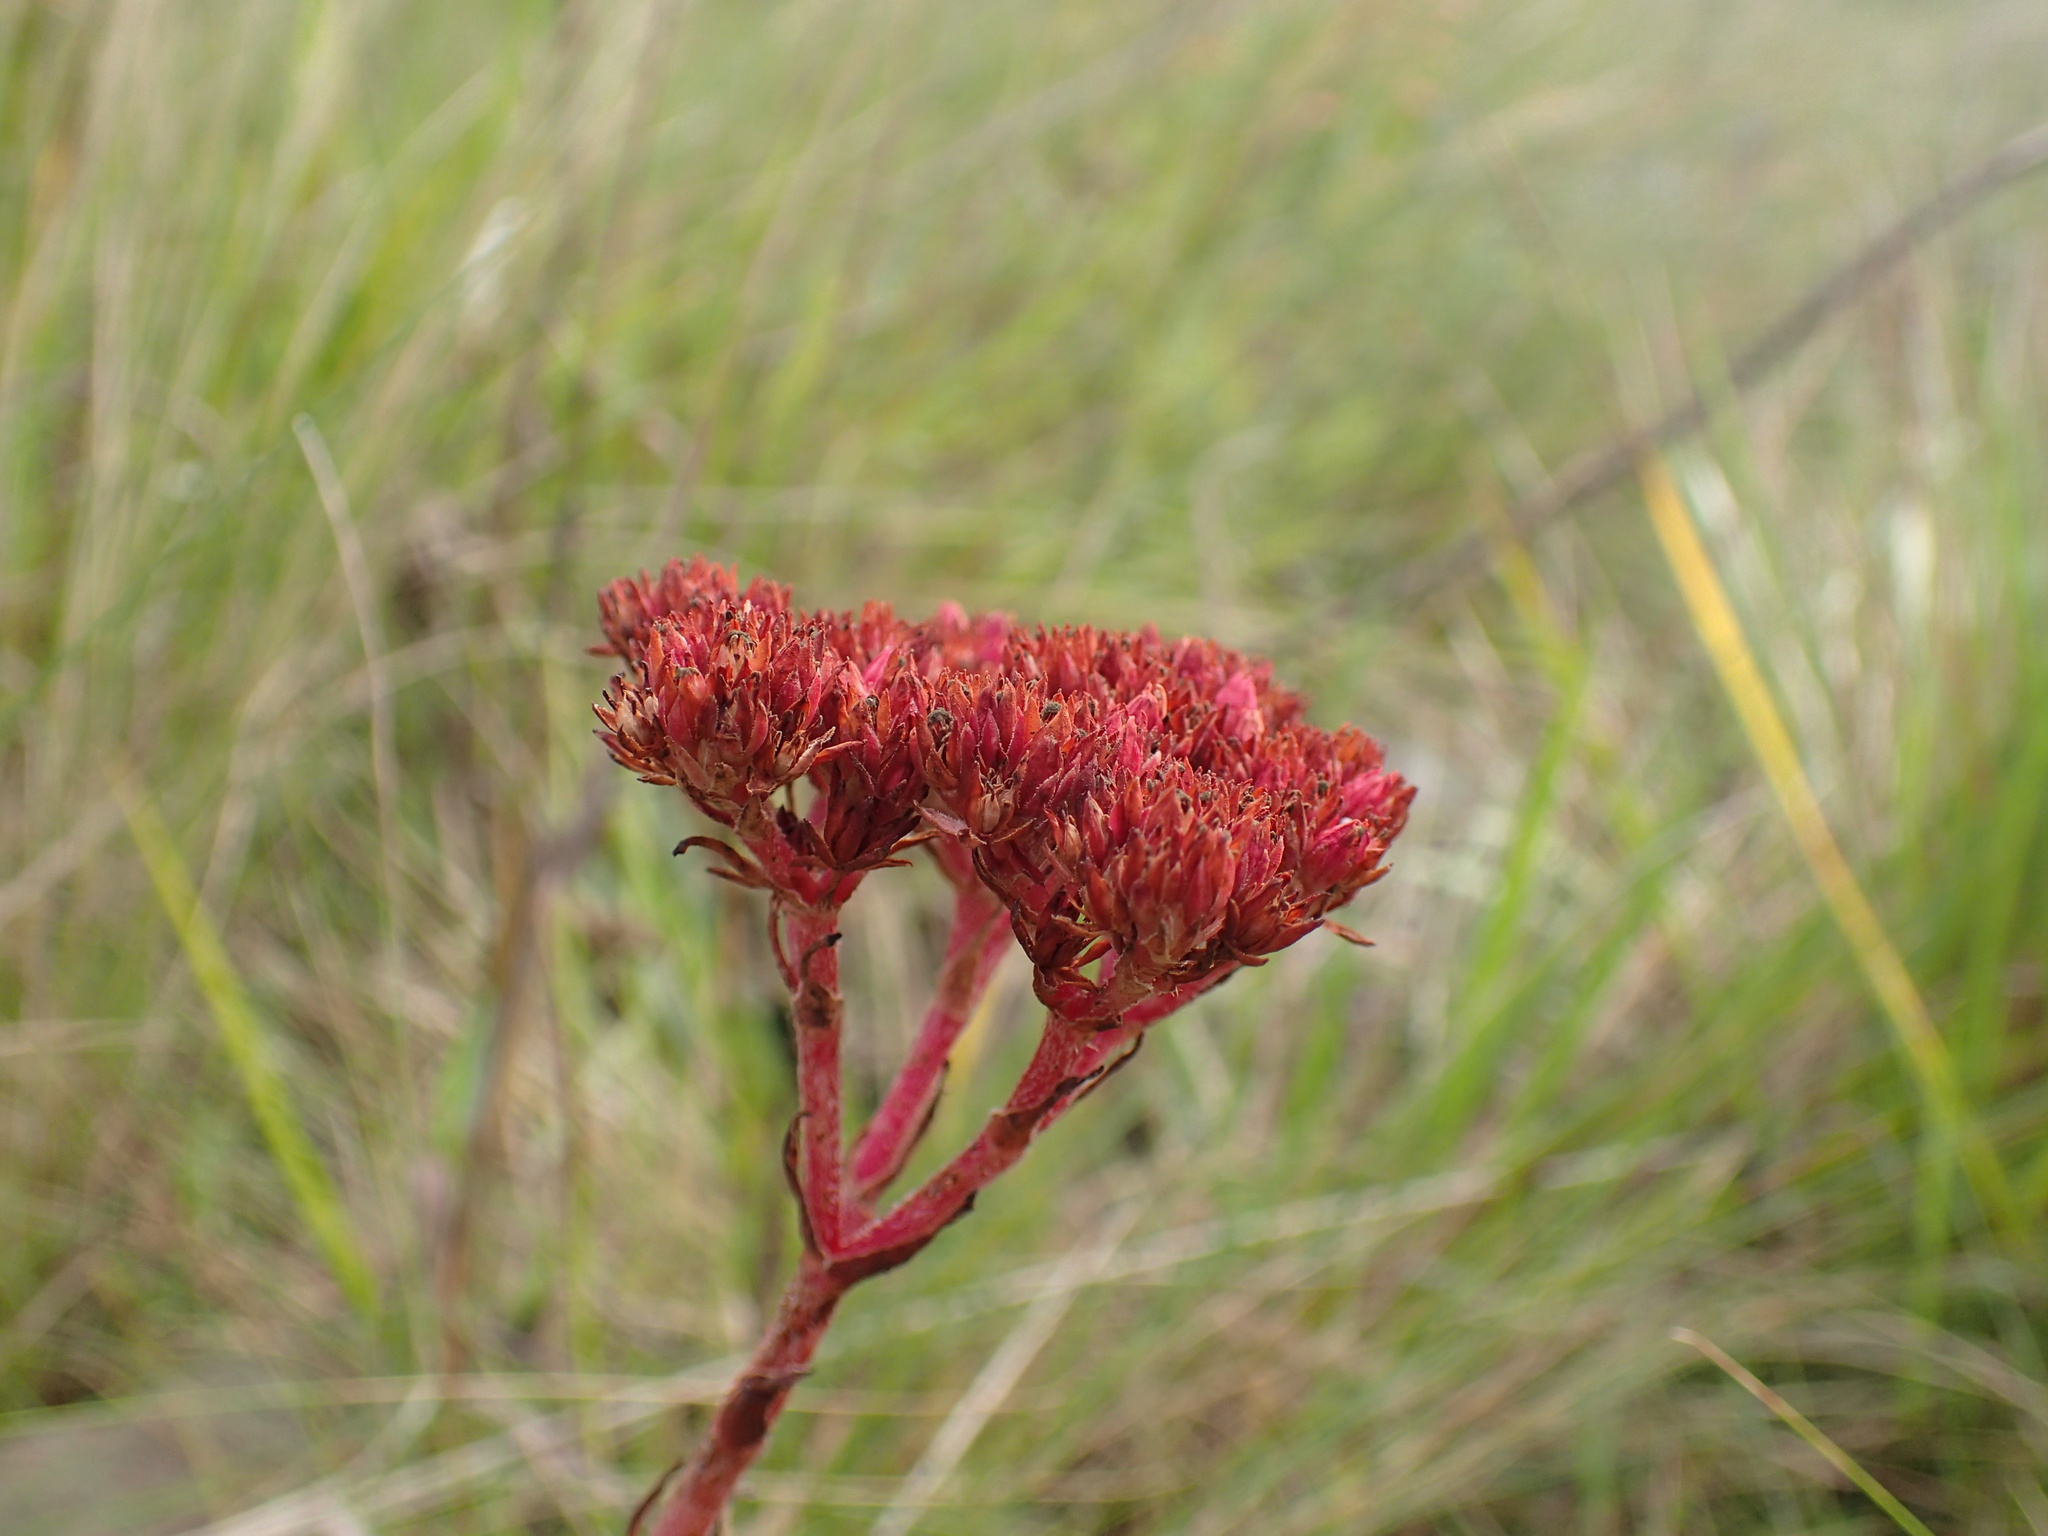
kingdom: Plantae
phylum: Tracheophyta
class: Magnoliopsida
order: Saxifragales
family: Crassulaceae
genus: Crassula
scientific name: Crassula alba
